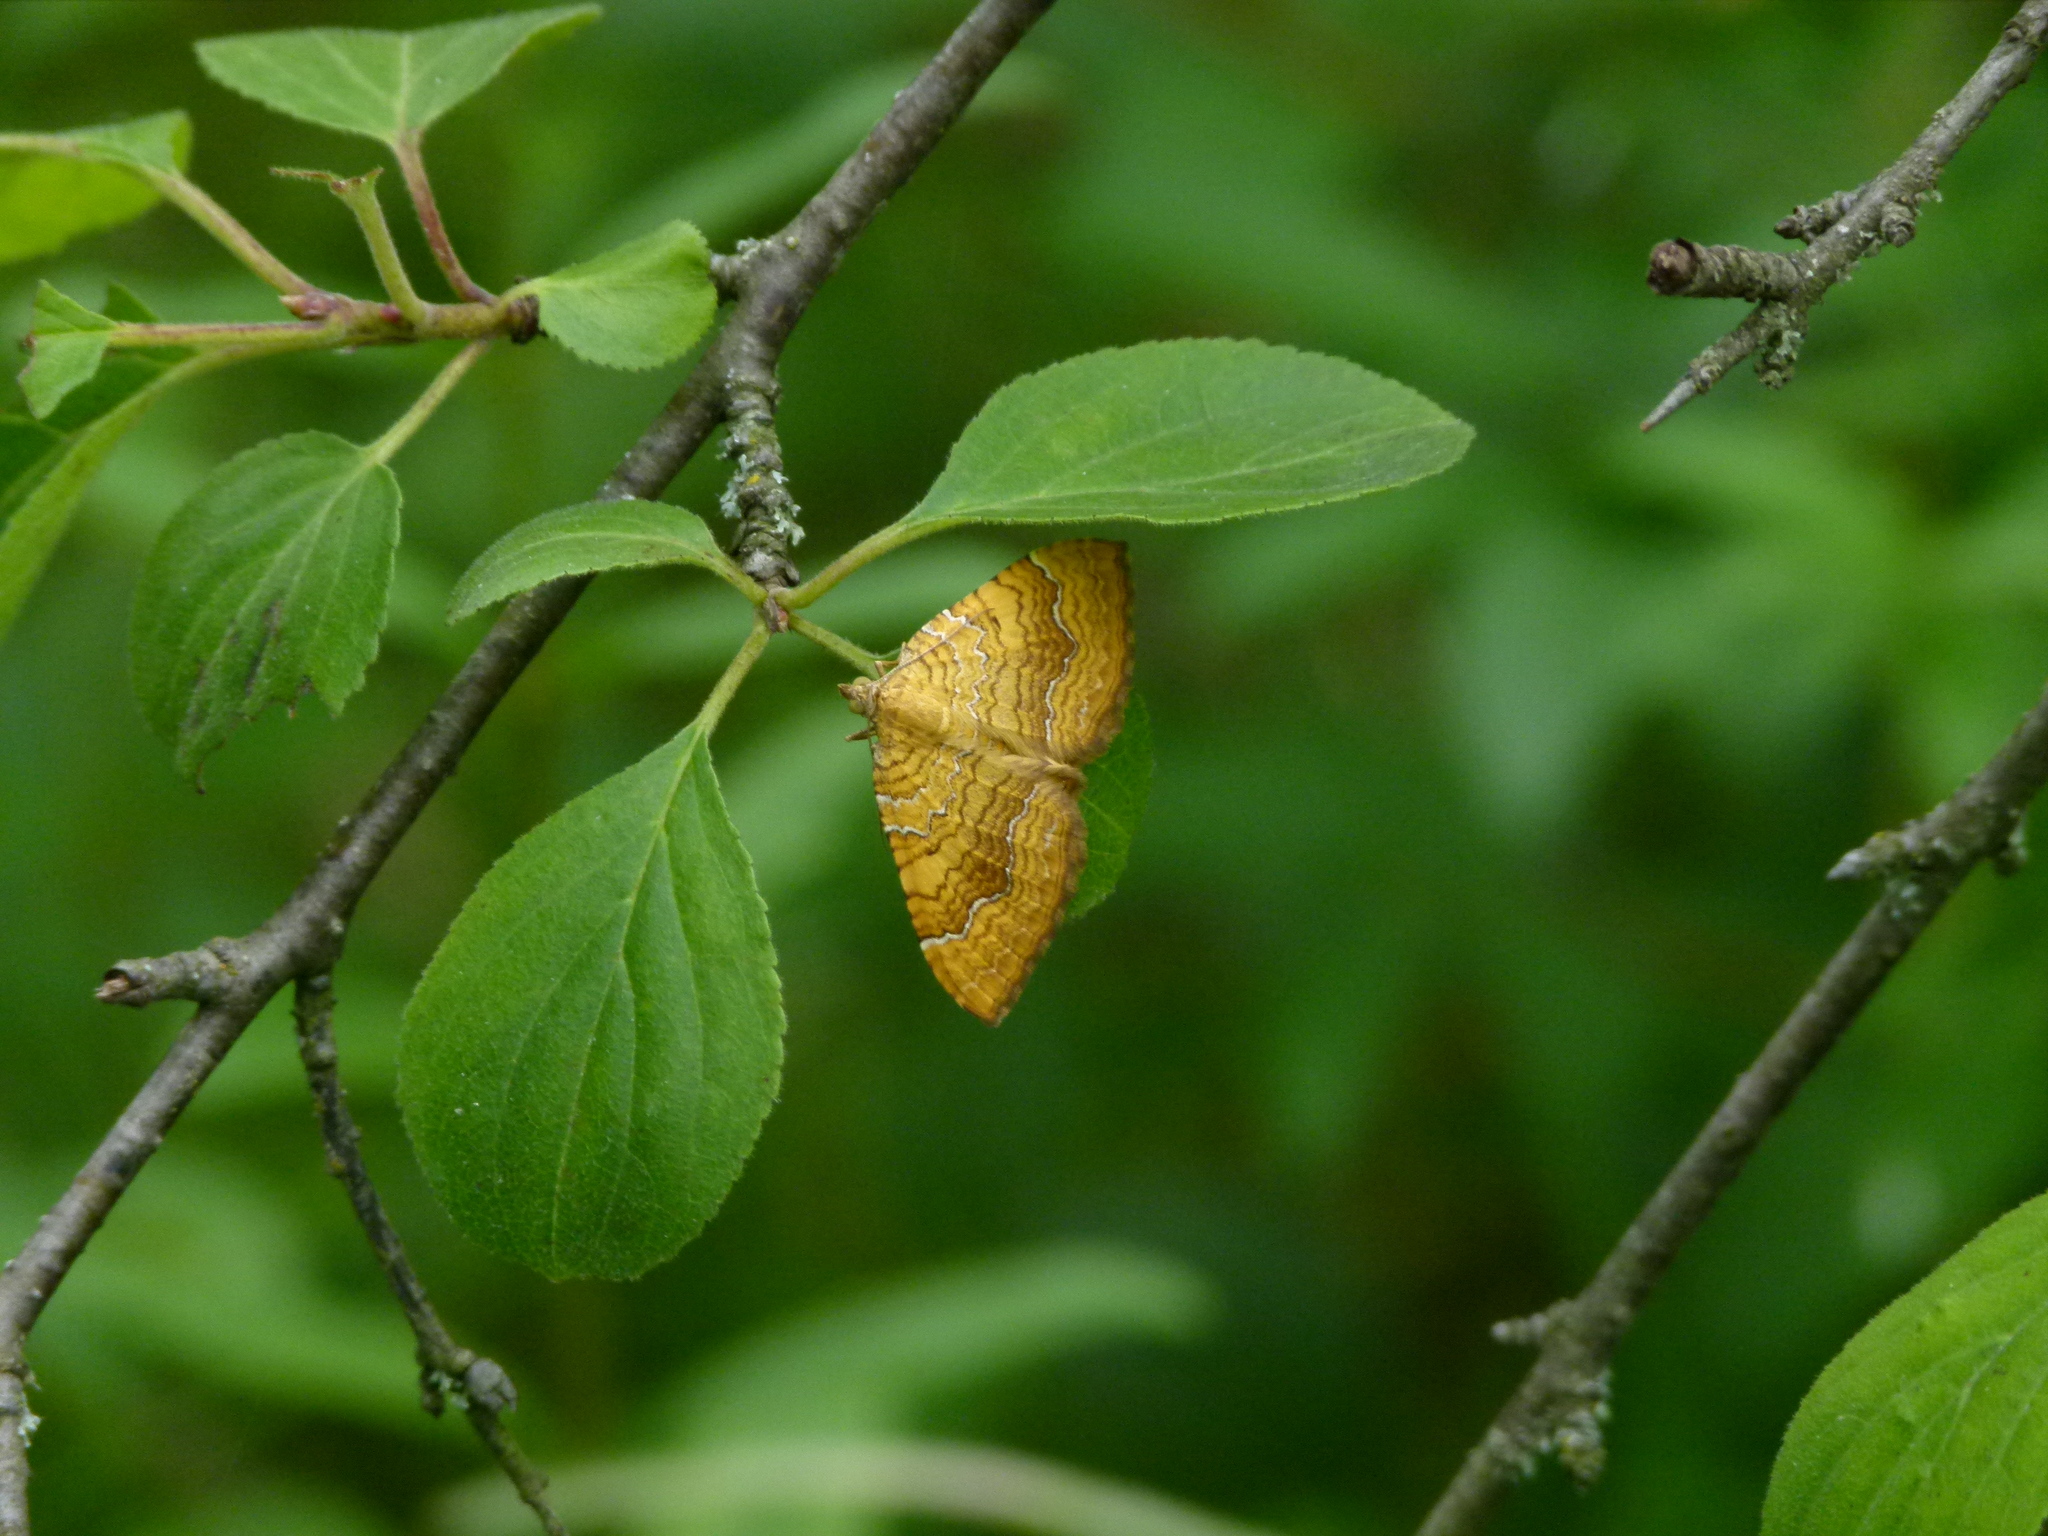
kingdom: Animalia
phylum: Arthropoda
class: Insecta
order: Lepidoptera
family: Geometridae
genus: Camptogramma
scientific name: Camptogramma bilineata
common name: Yellow shell
